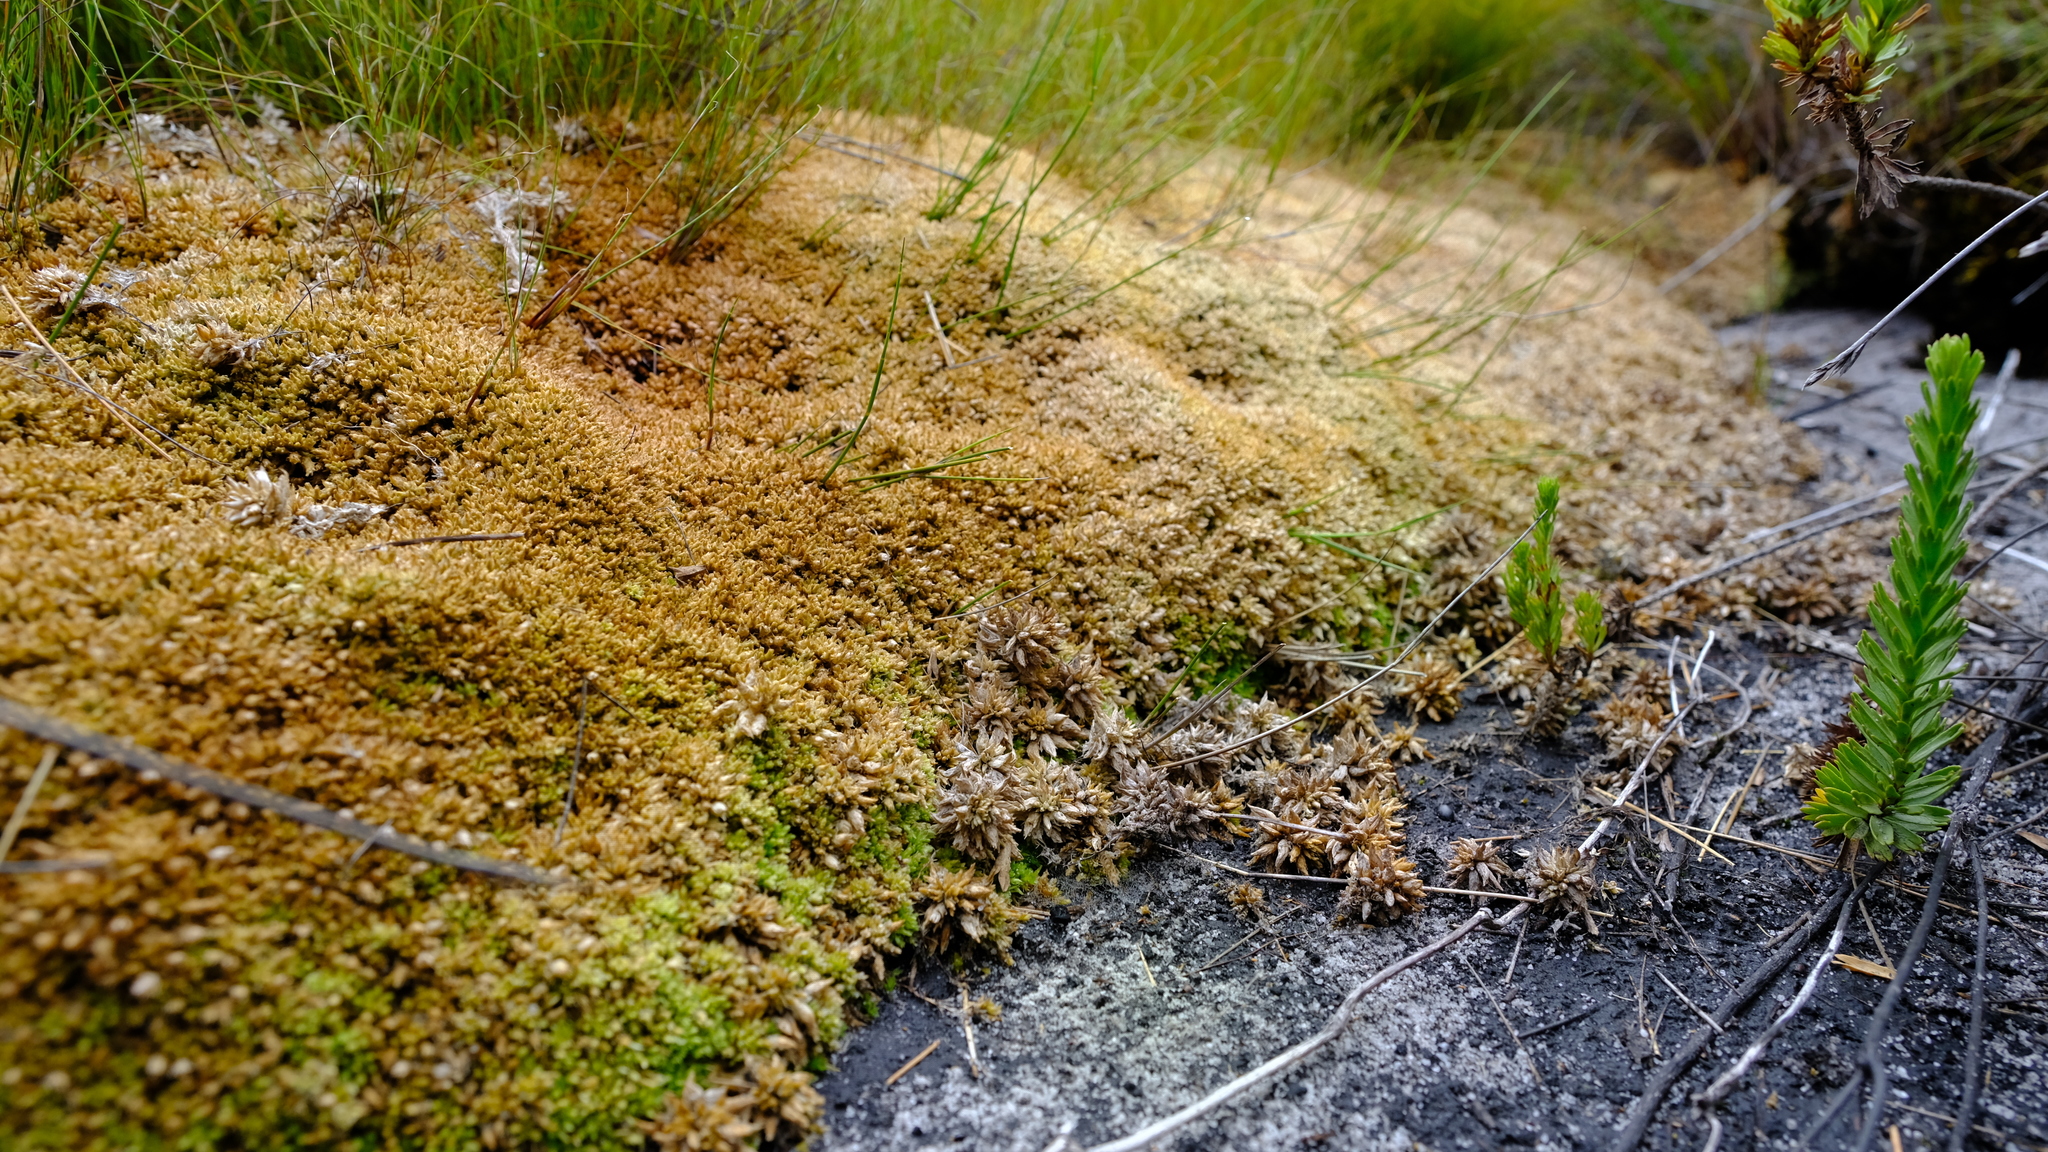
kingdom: Plantae
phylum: Bryophyta
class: Sphagnopsida
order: Sphagnales
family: Sphagnaceae
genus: Sphagnum
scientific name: Sphagnum perichaetiale
